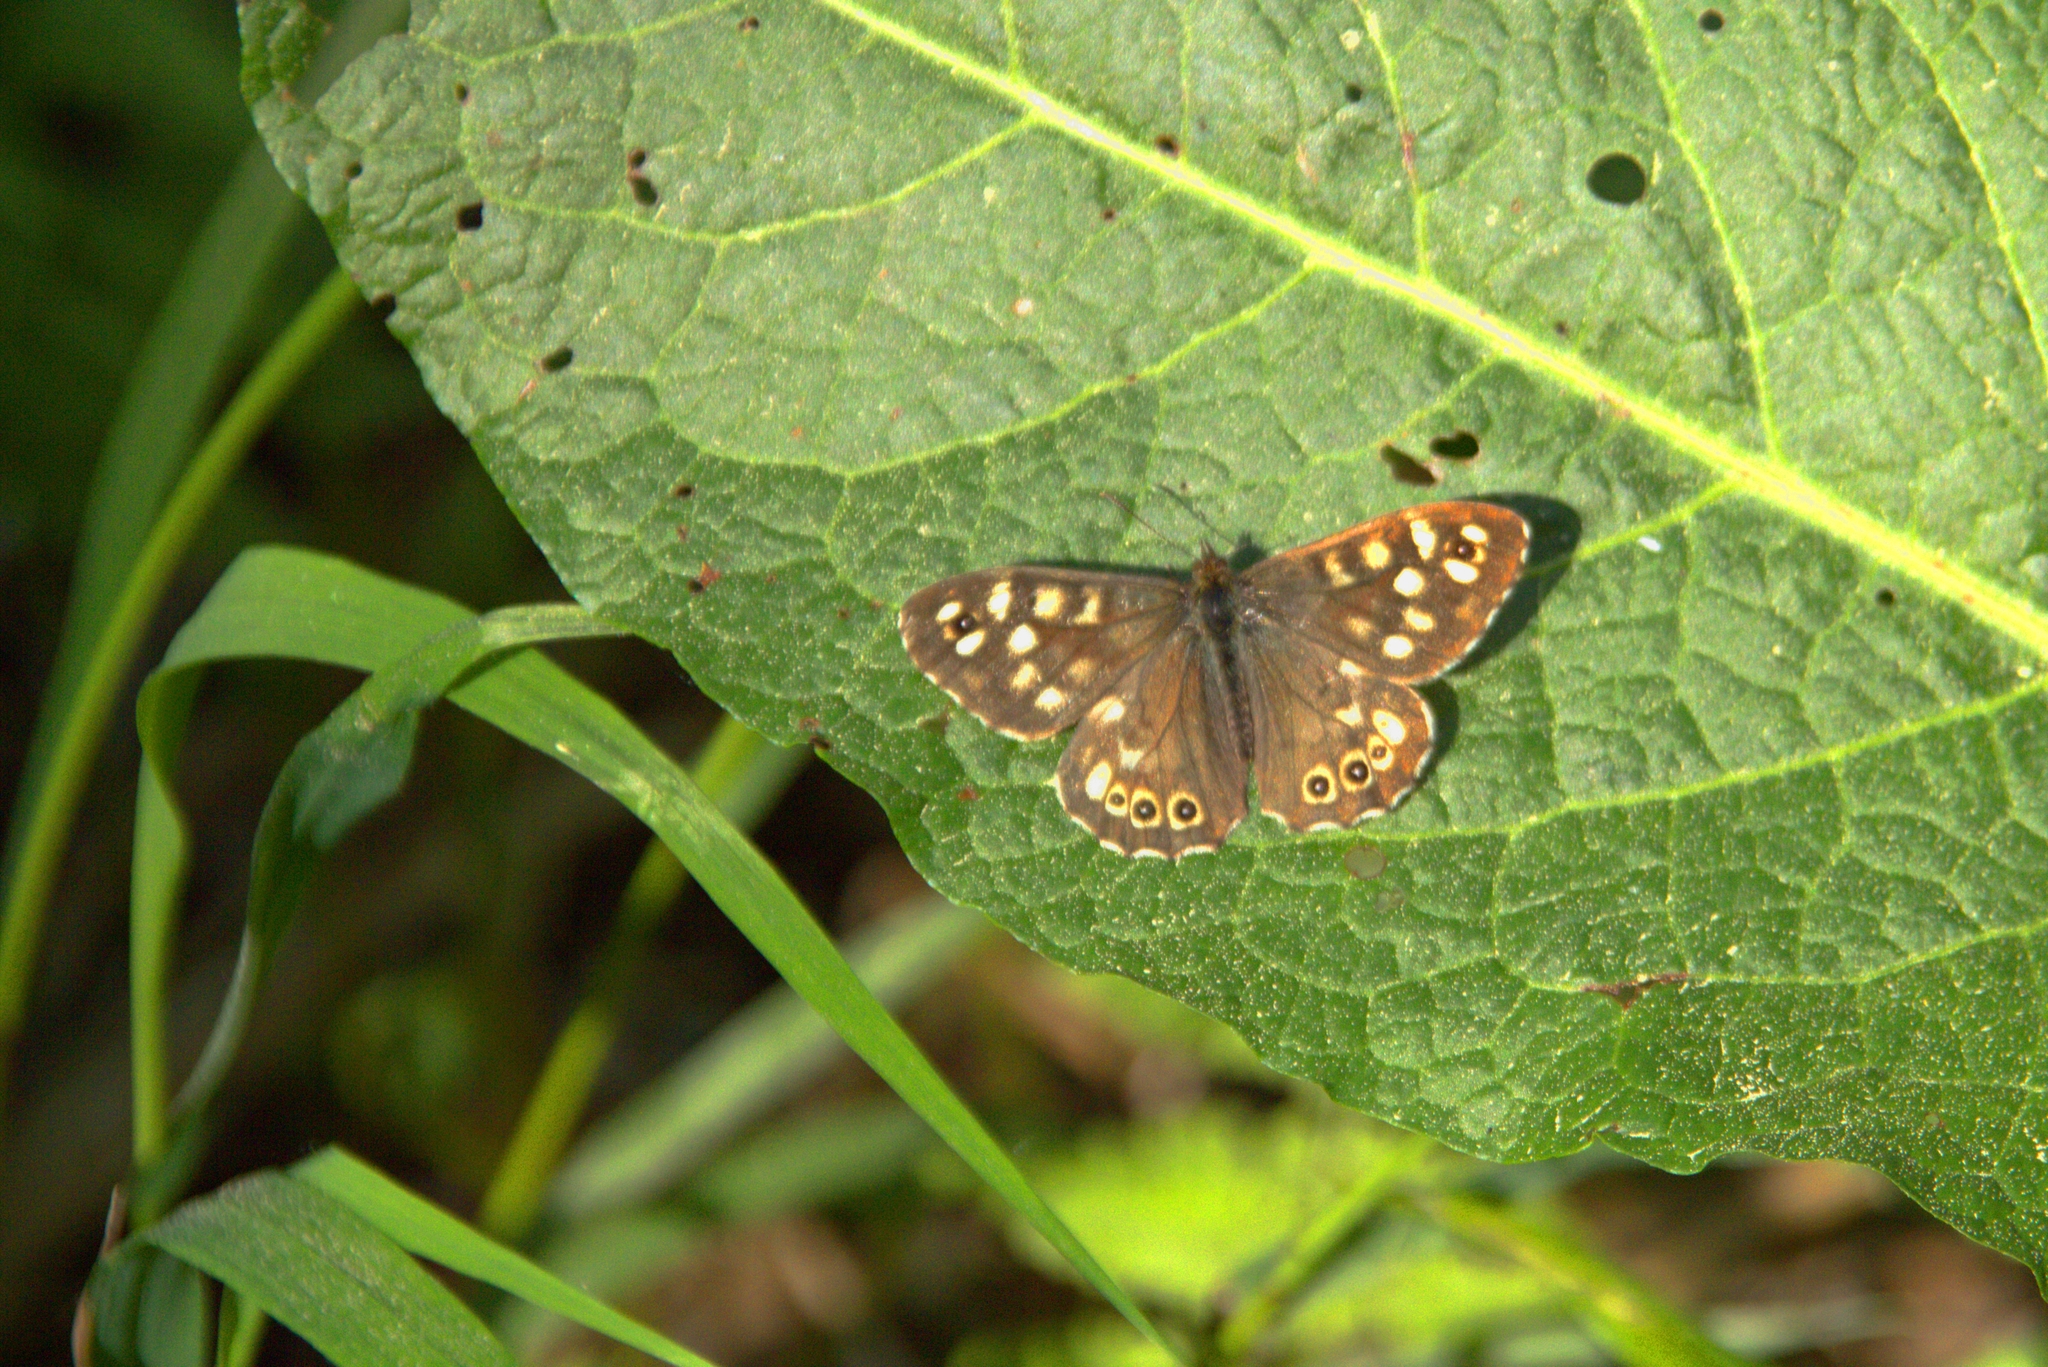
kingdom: Animalia
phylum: Arthropoda
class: Insecta
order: Lepidoptera
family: Nymphalidae
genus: Pararge
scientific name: Pararge aegeria
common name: Speckled wood
